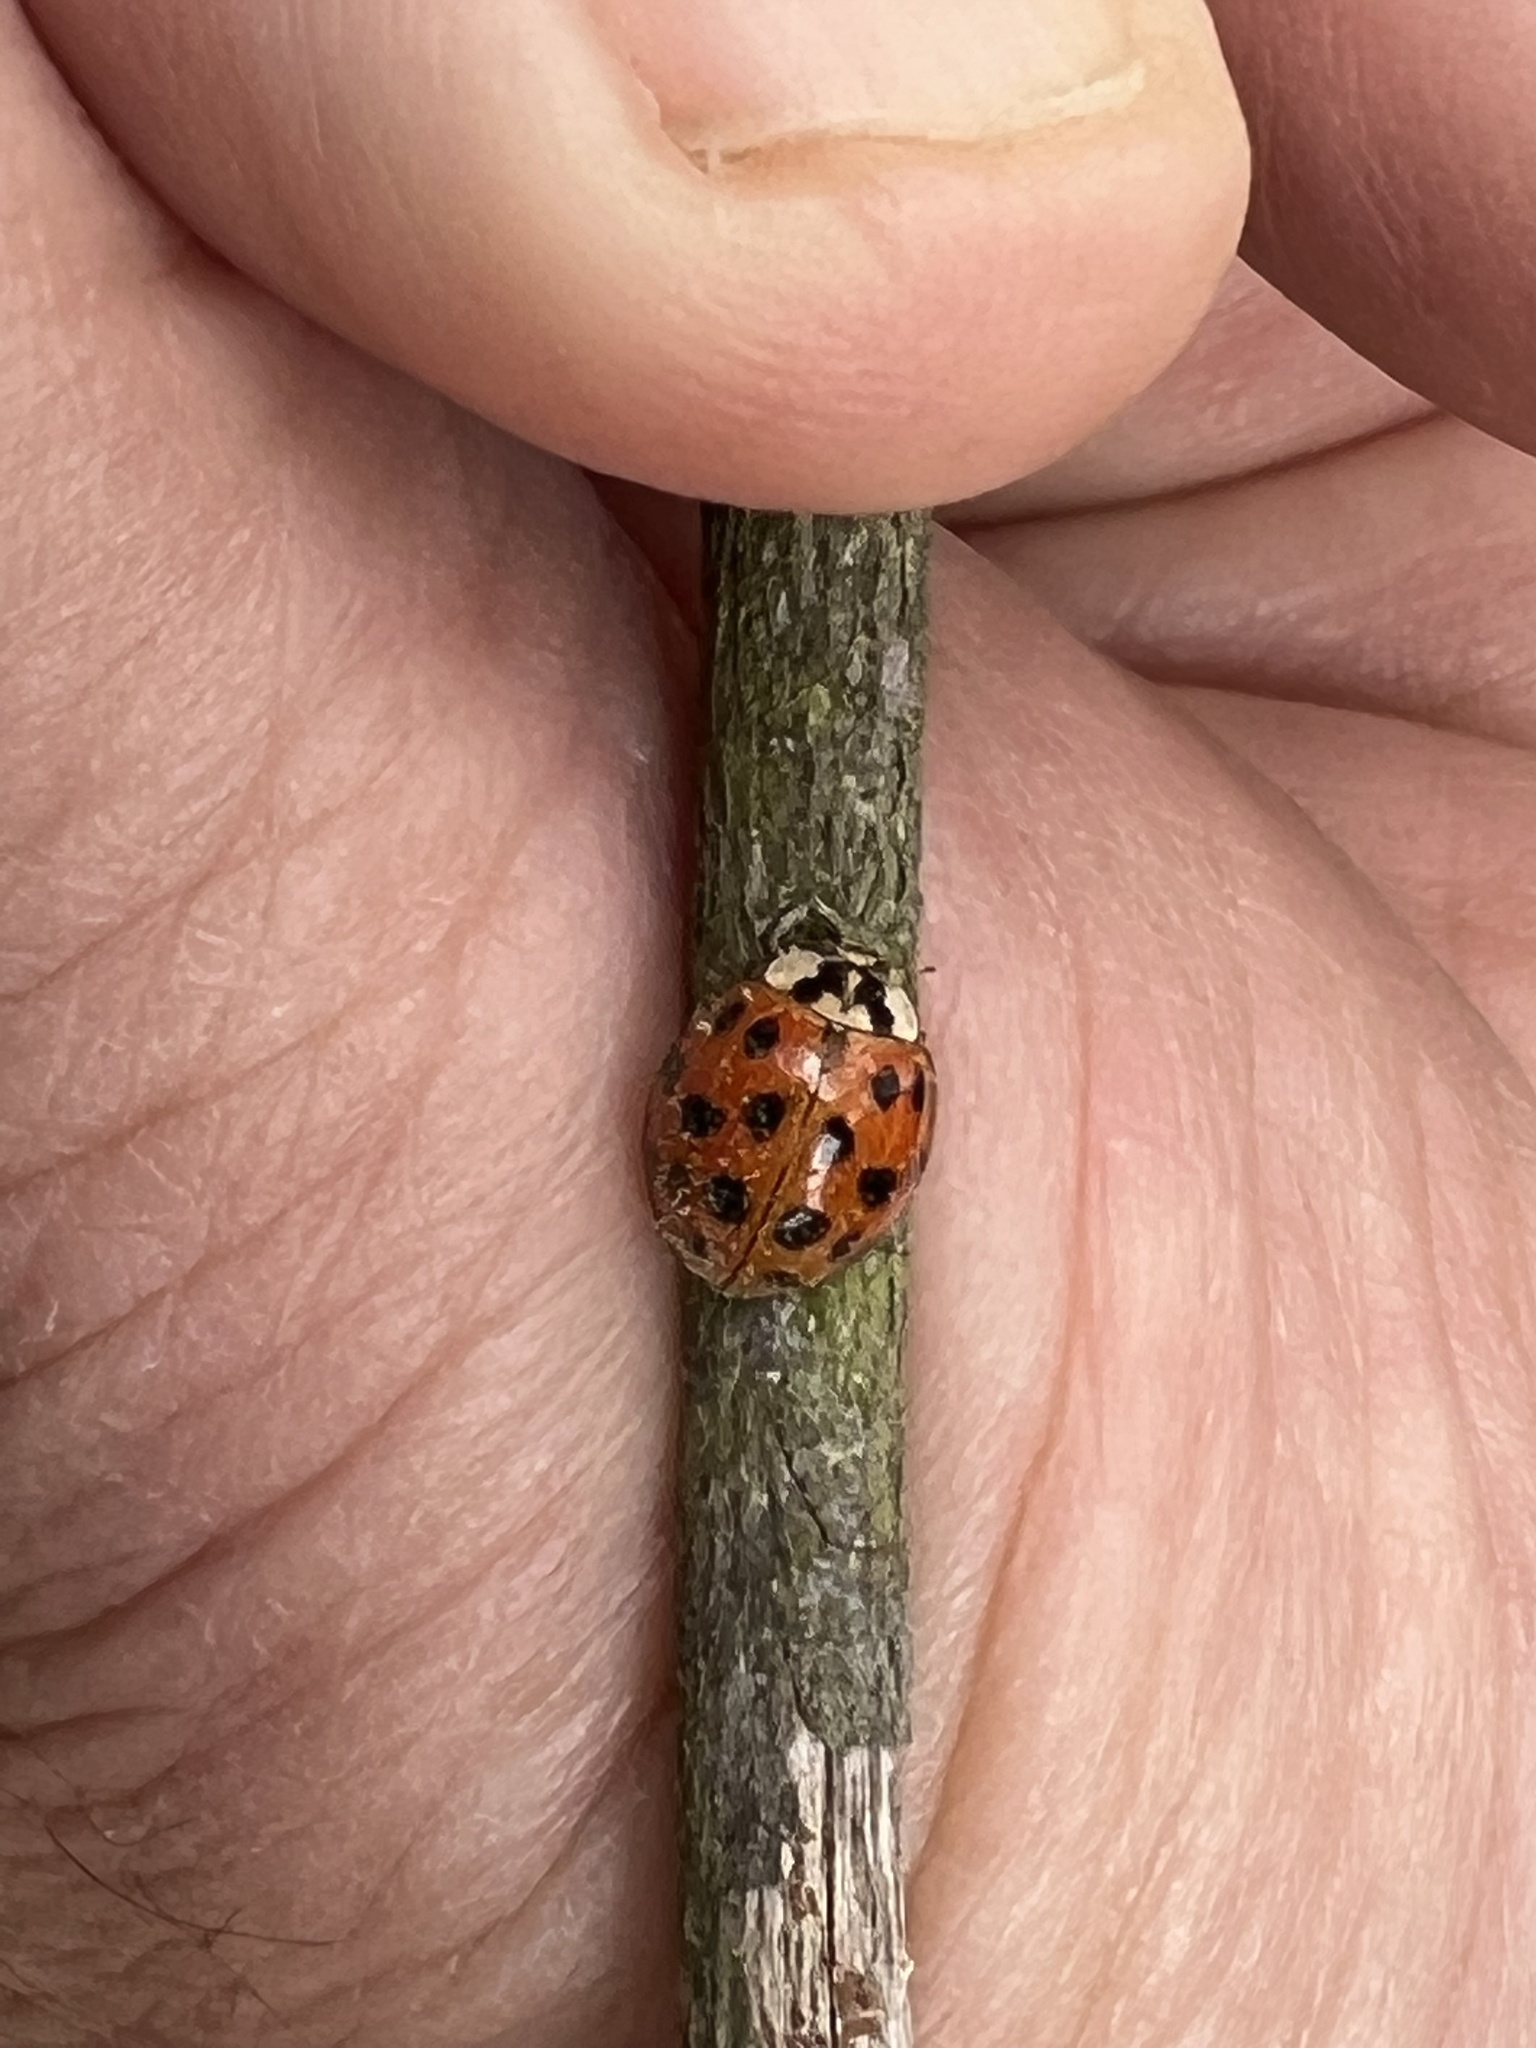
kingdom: Animalia
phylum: Arthropoda
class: Insecta
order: Coleoptera
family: Coccinellidae
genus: Harmonia
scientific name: Harmonia axyridis
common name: Harlequin ladybird
